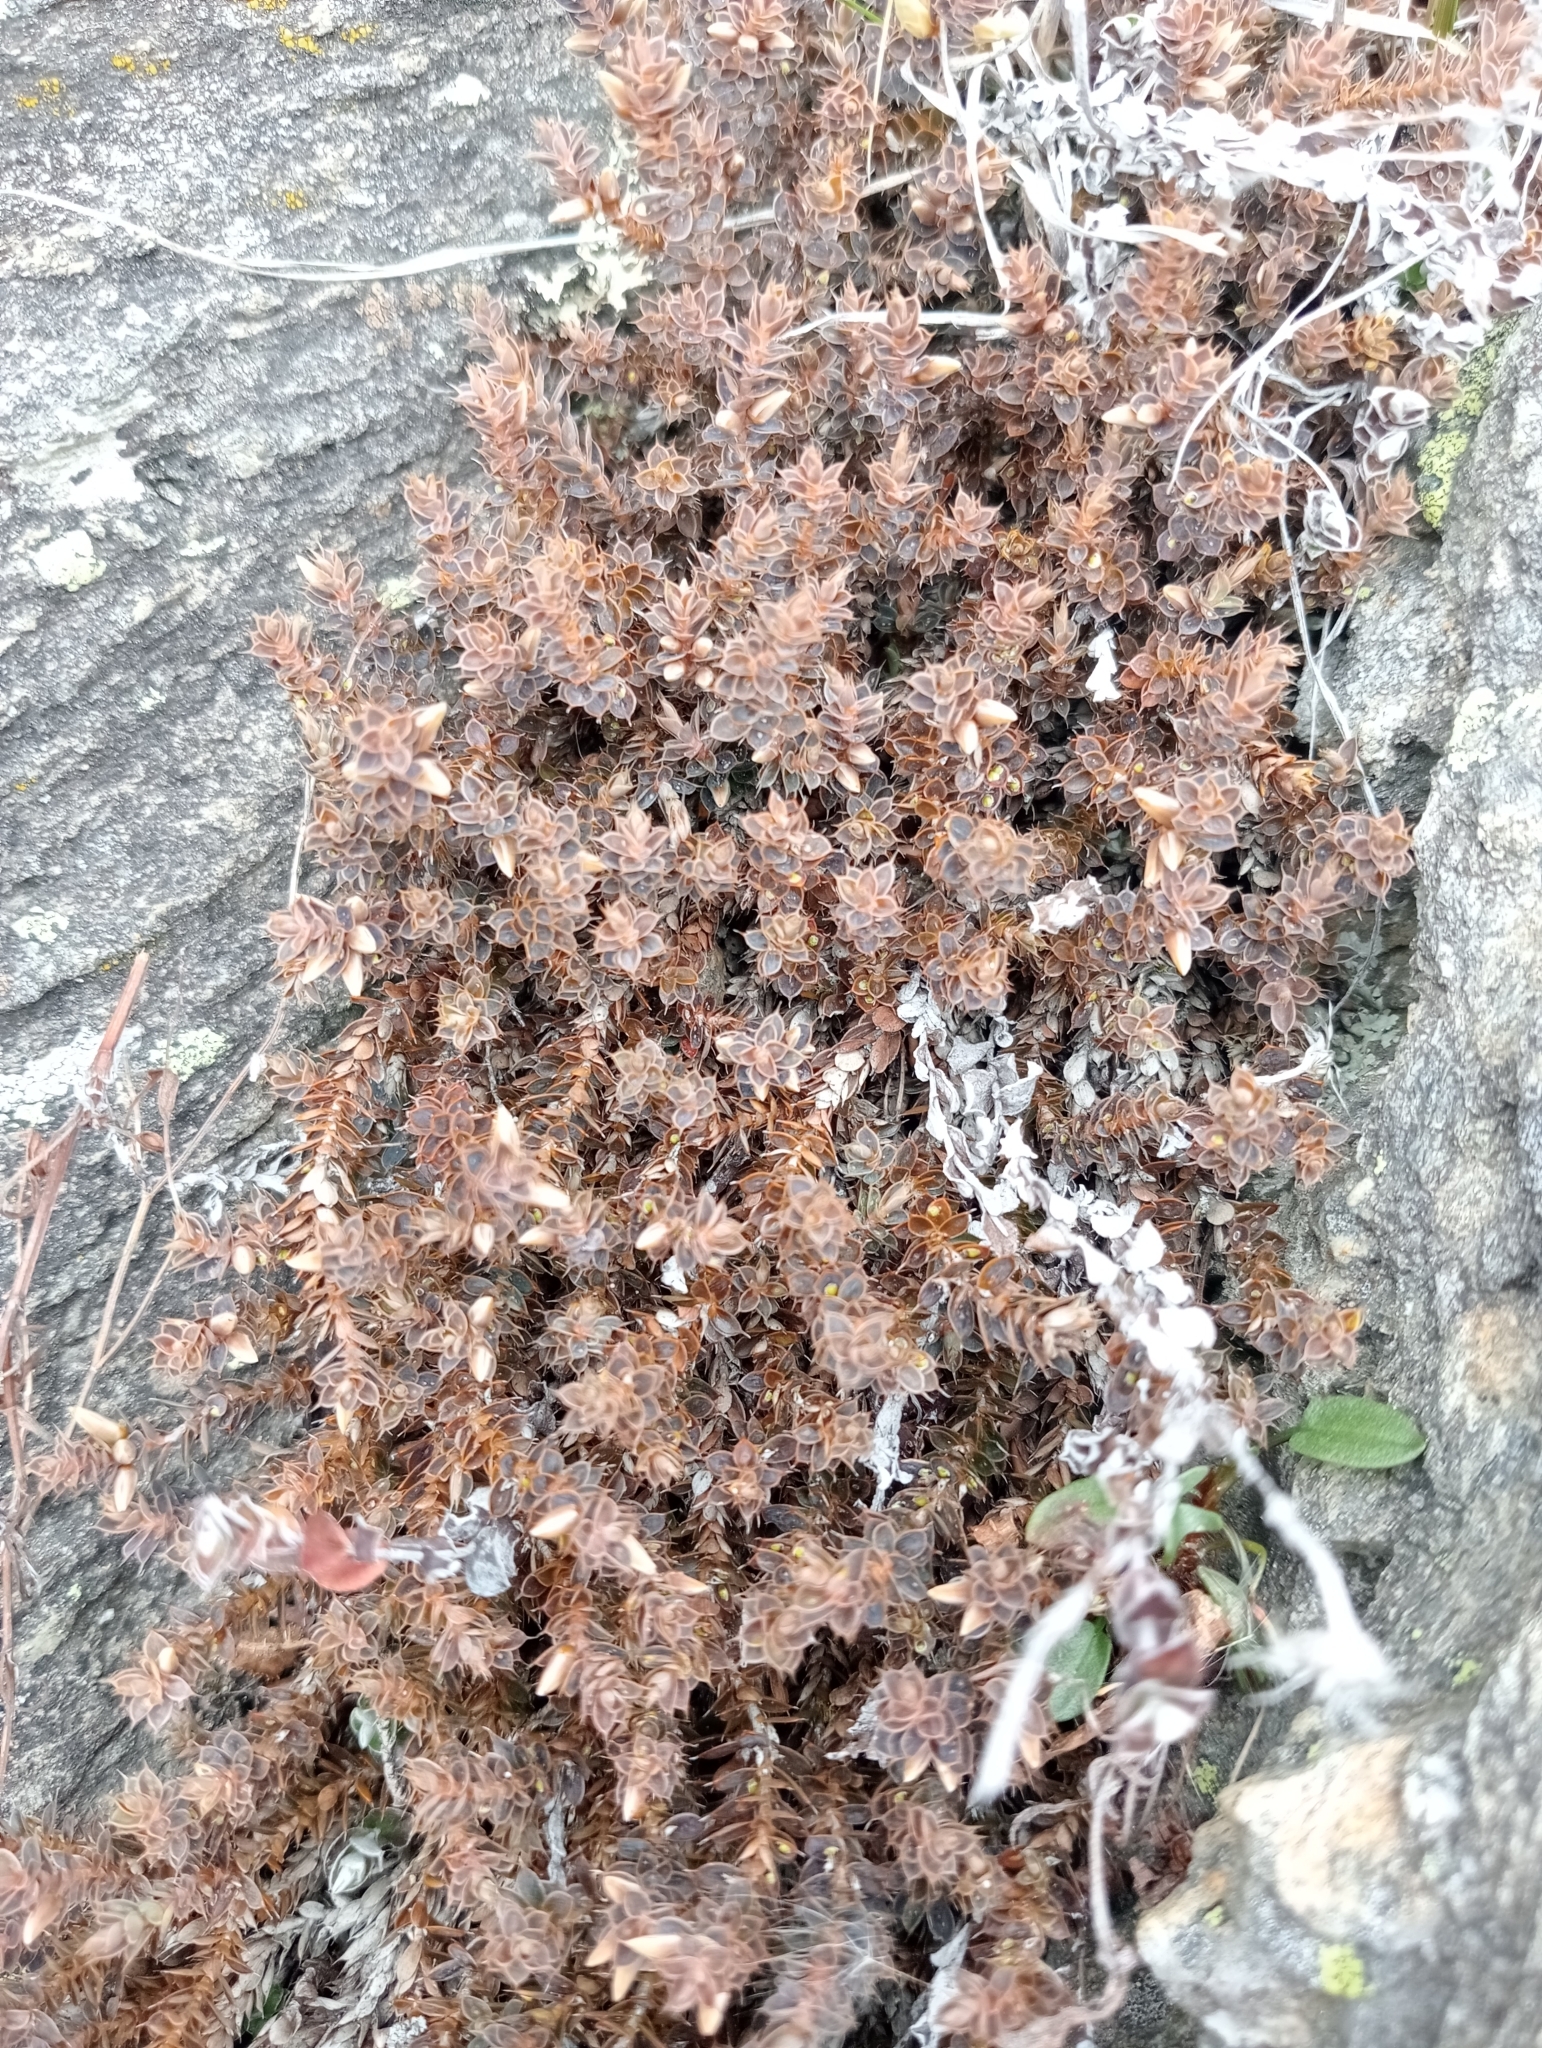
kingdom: Plantae
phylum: Tracheophyta
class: Magnoliopsida
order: Ericales
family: Ericaceae
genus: Styphelia
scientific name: Styphelia nesophila
